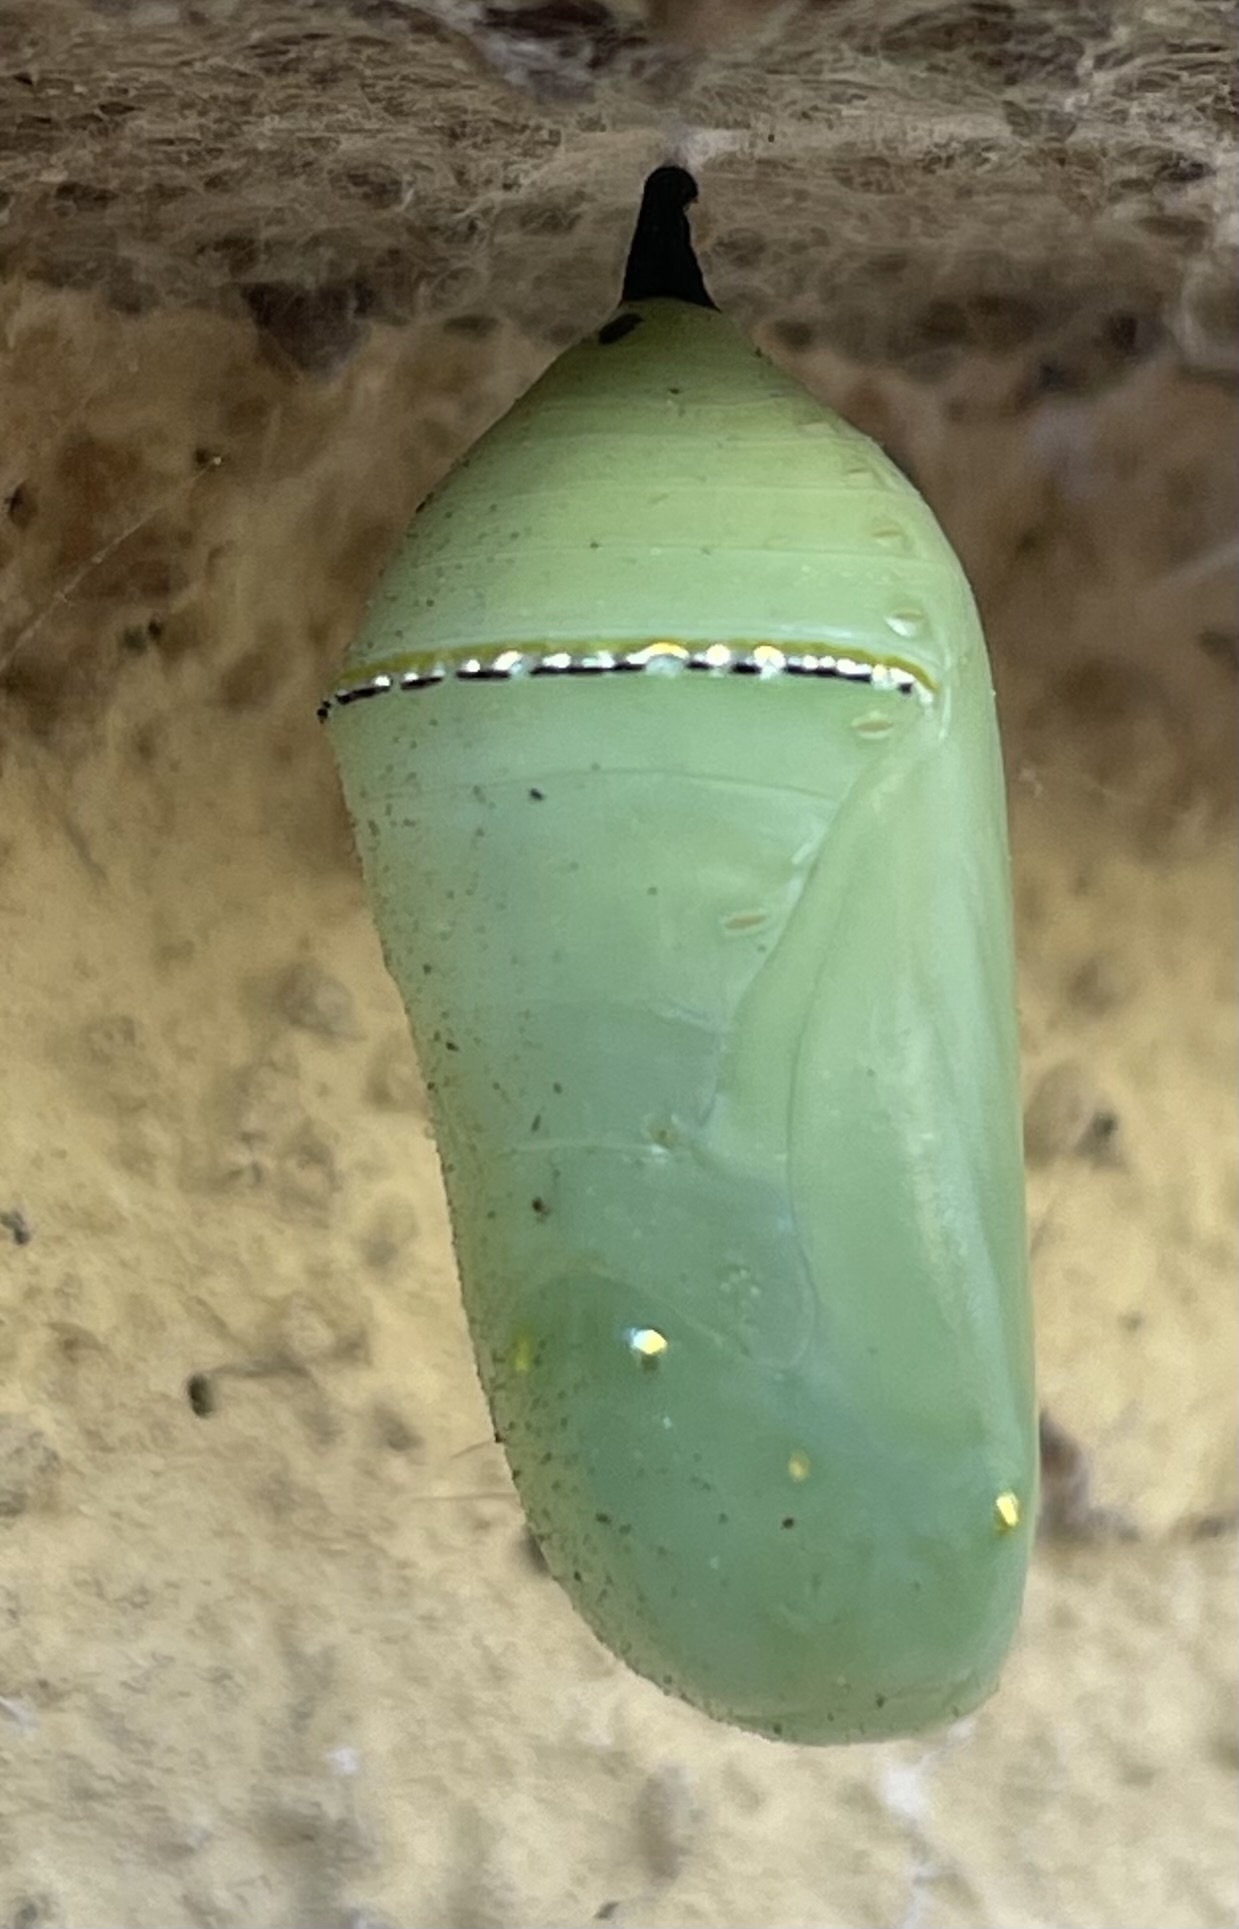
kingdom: Animalia
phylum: Arthropoda
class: Insecta
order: Lepidoptera
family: Nymphalidae
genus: Danaus
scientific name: Danaus plexippus
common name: Monarch
